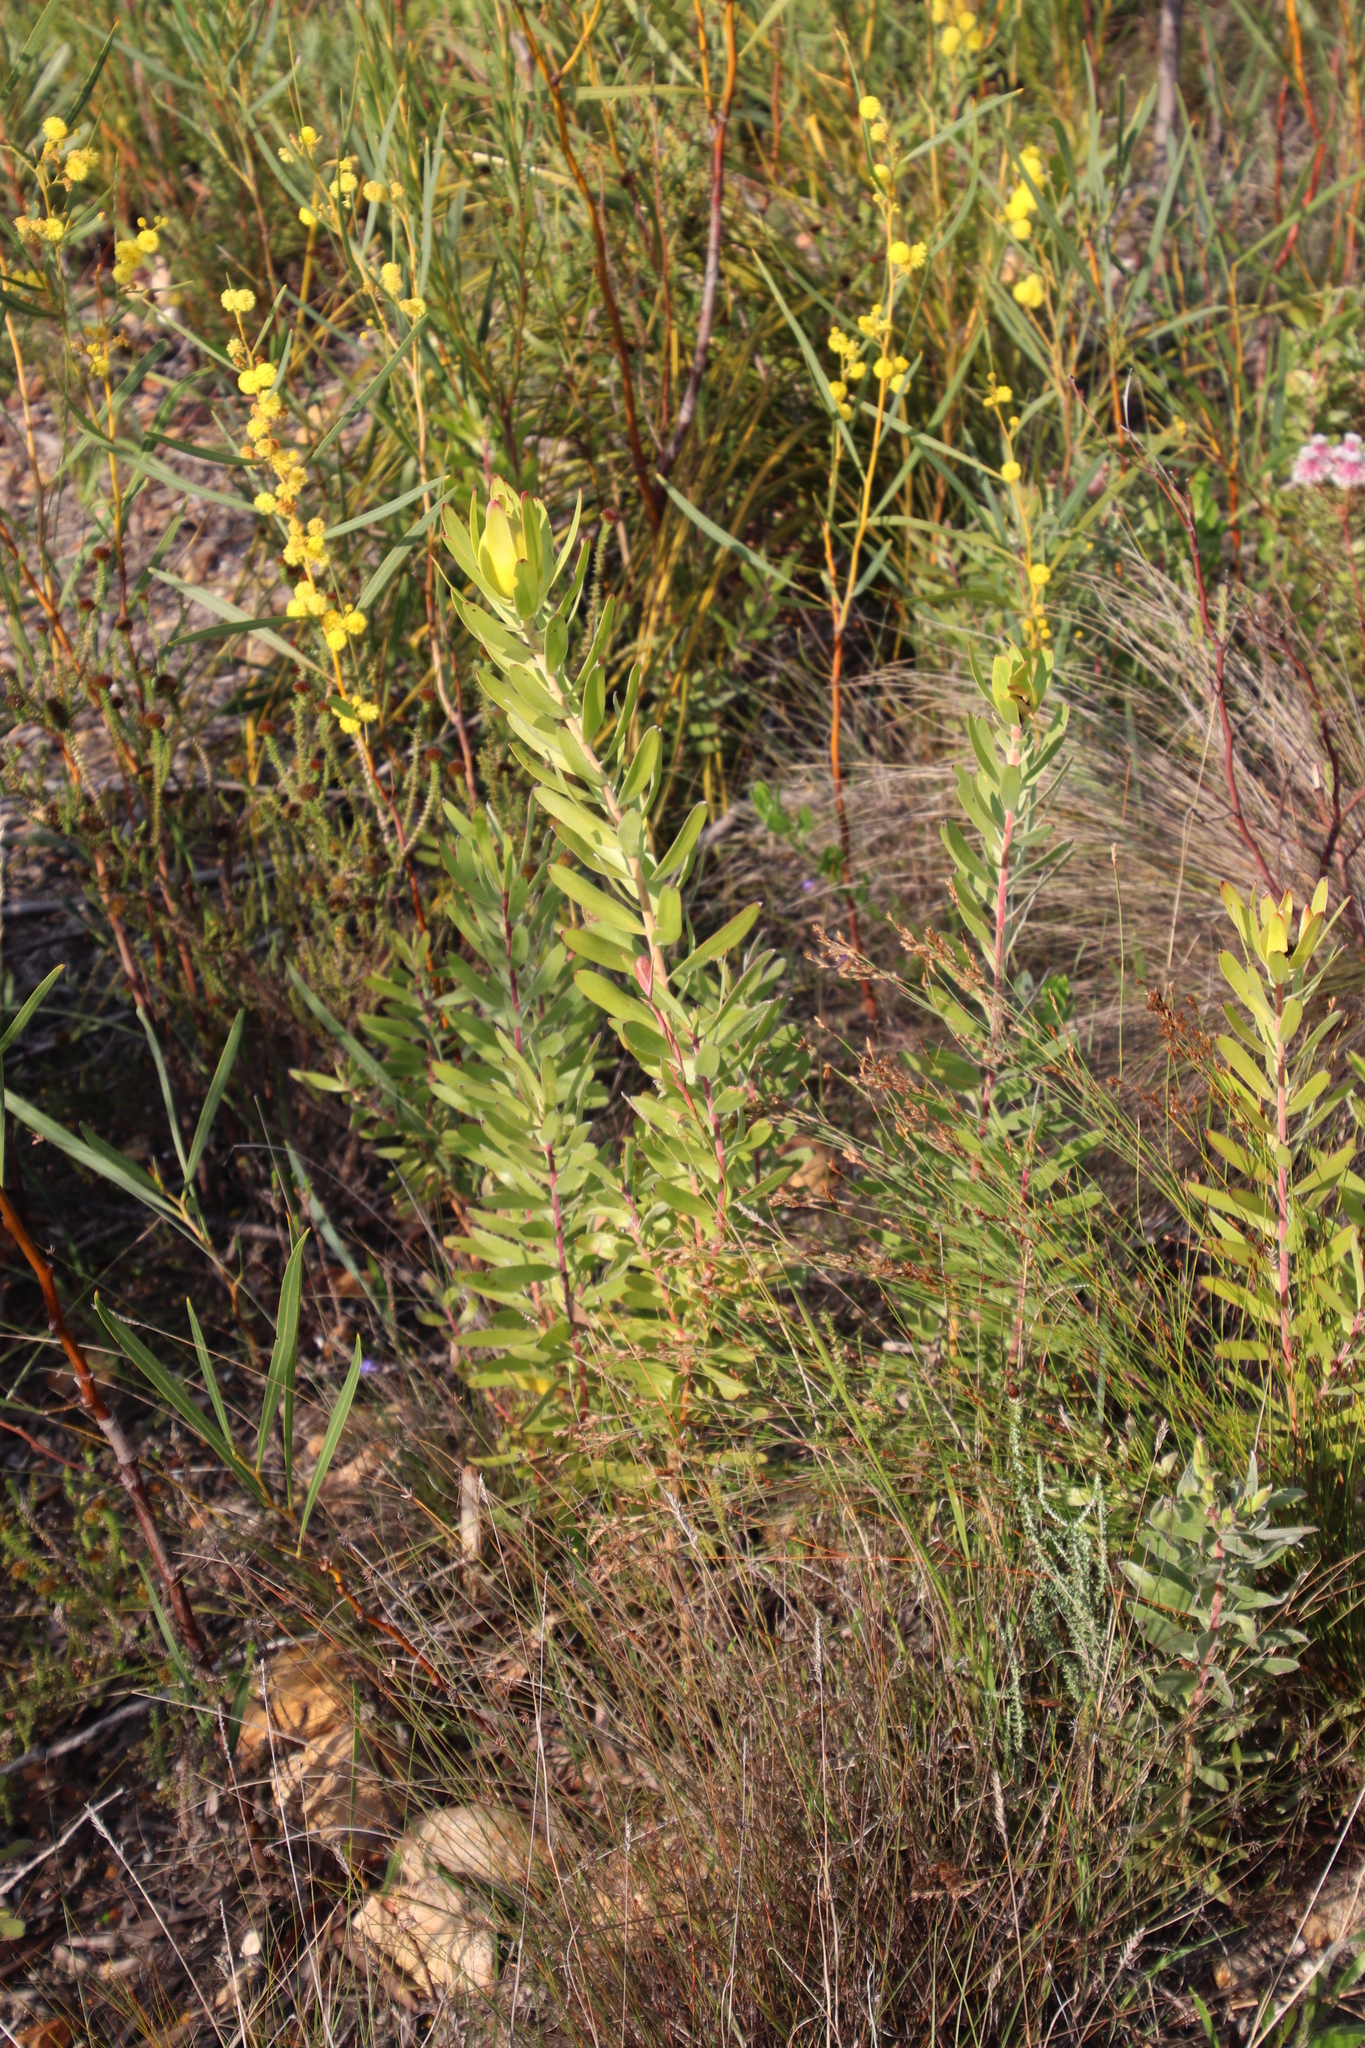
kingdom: Plantae
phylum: Tracheophyta
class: Magnoliopsida
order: Proteales
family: Proteaceae
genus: Leucadendron
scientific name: Leucadendron laureolum
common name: Golden sunshinebush
